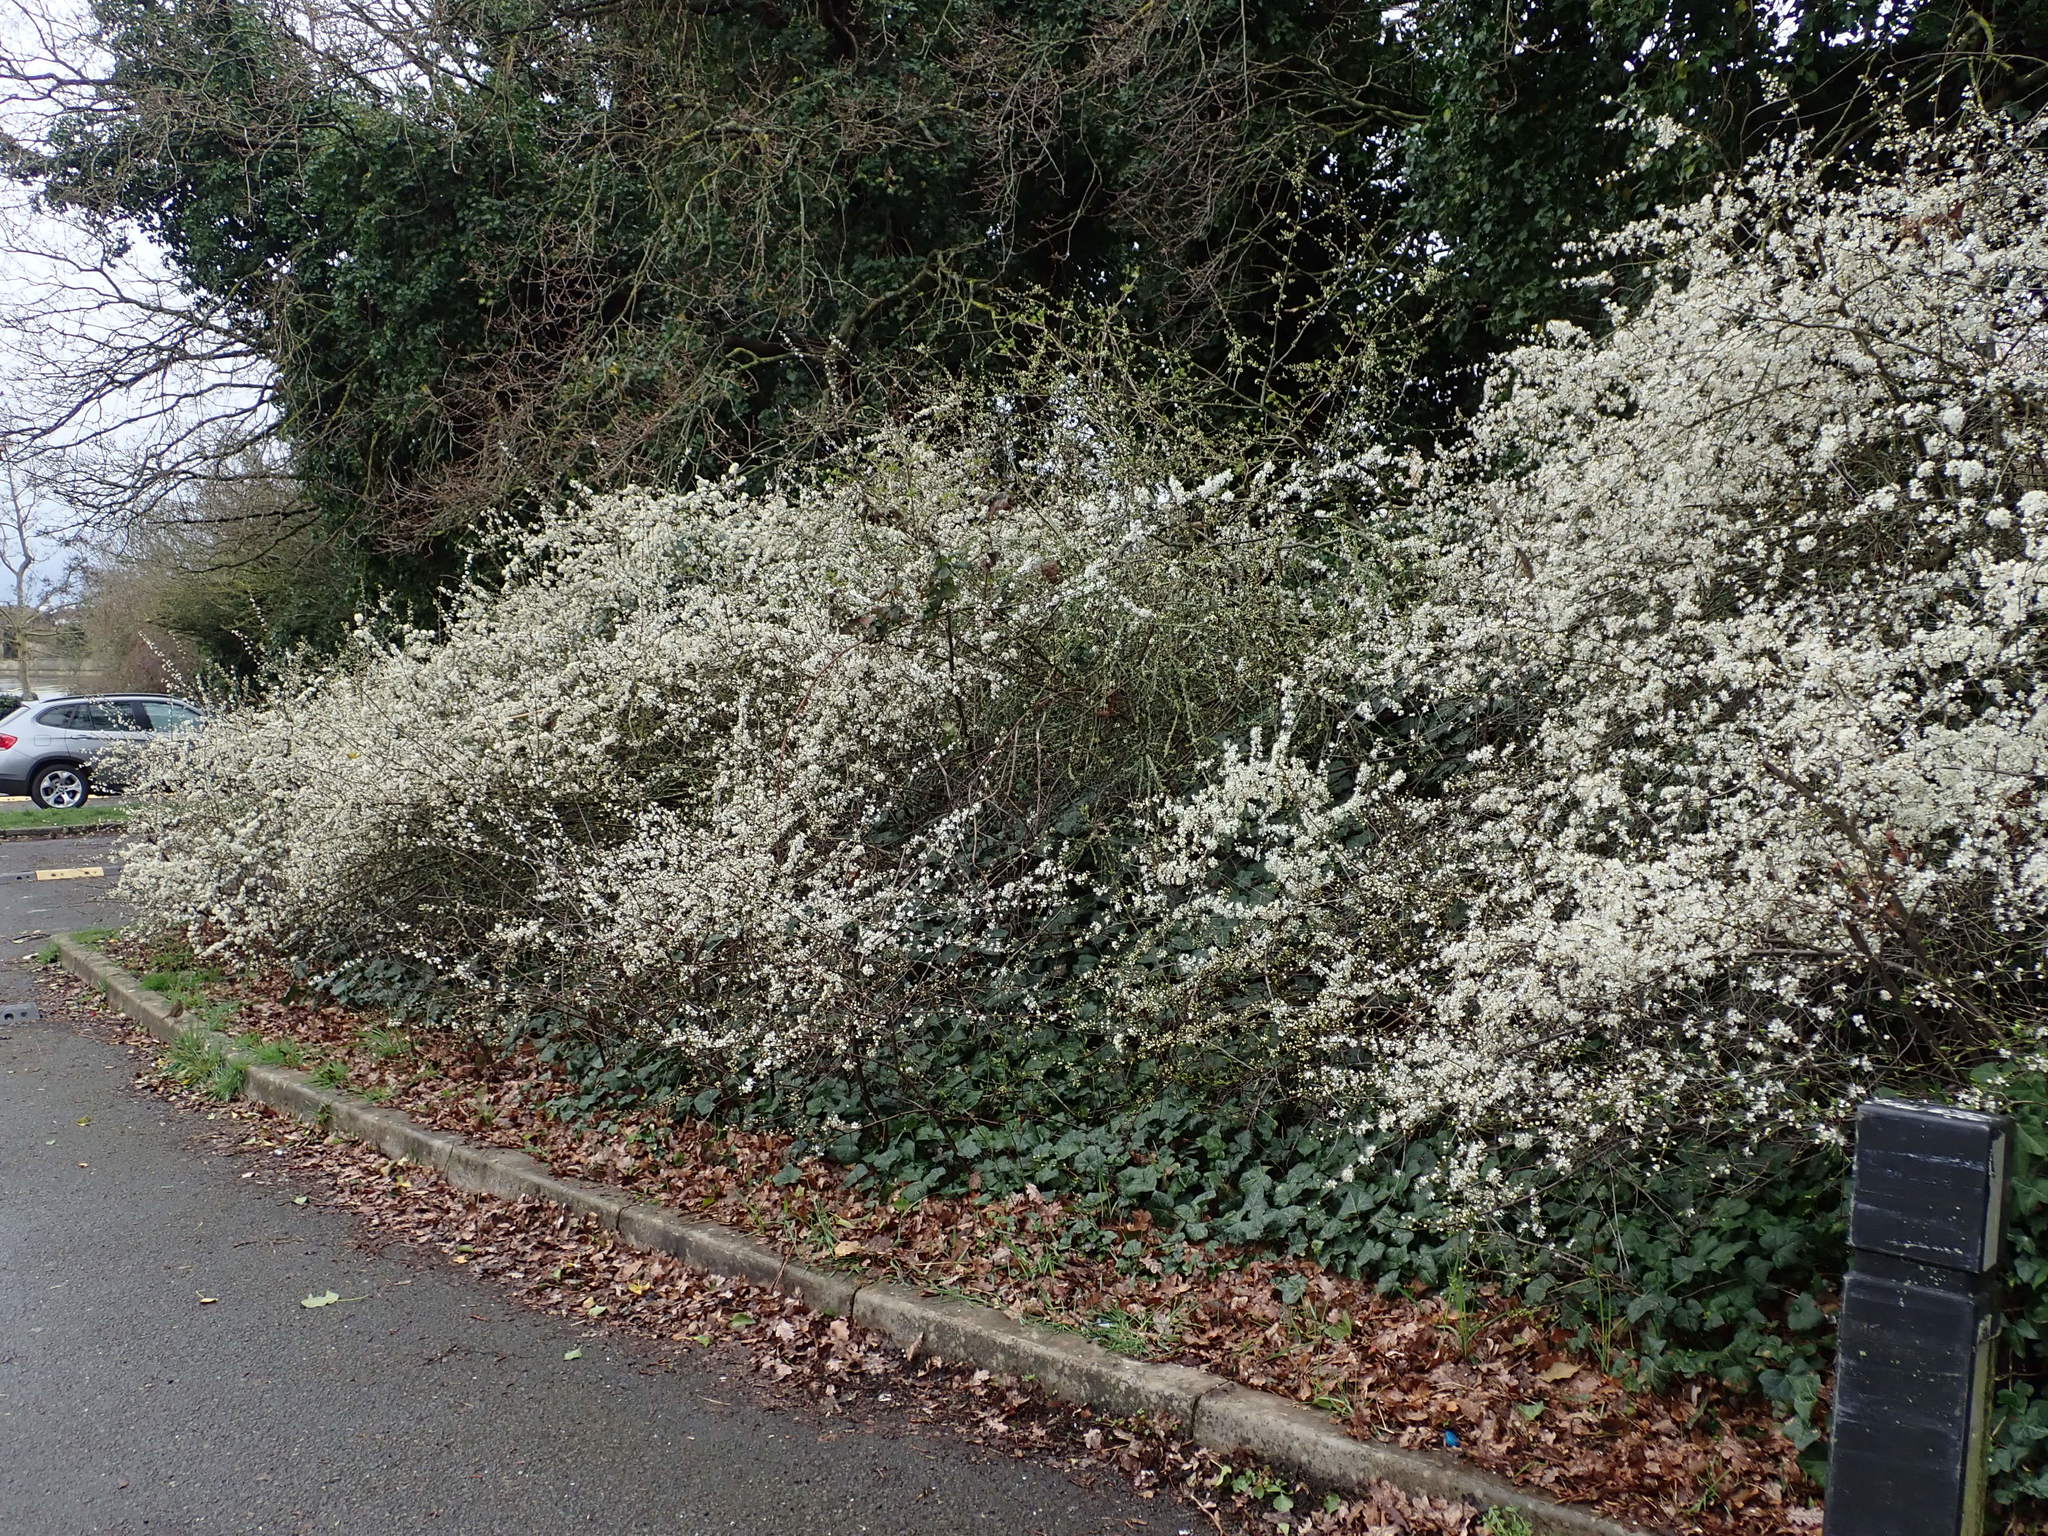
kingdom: Plantae
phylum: Tracheophyta
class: Magnoliopsida
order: Rosales
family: Rosaceae
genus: Prunus
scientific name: Prunus spinosa
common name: Blackthorn
